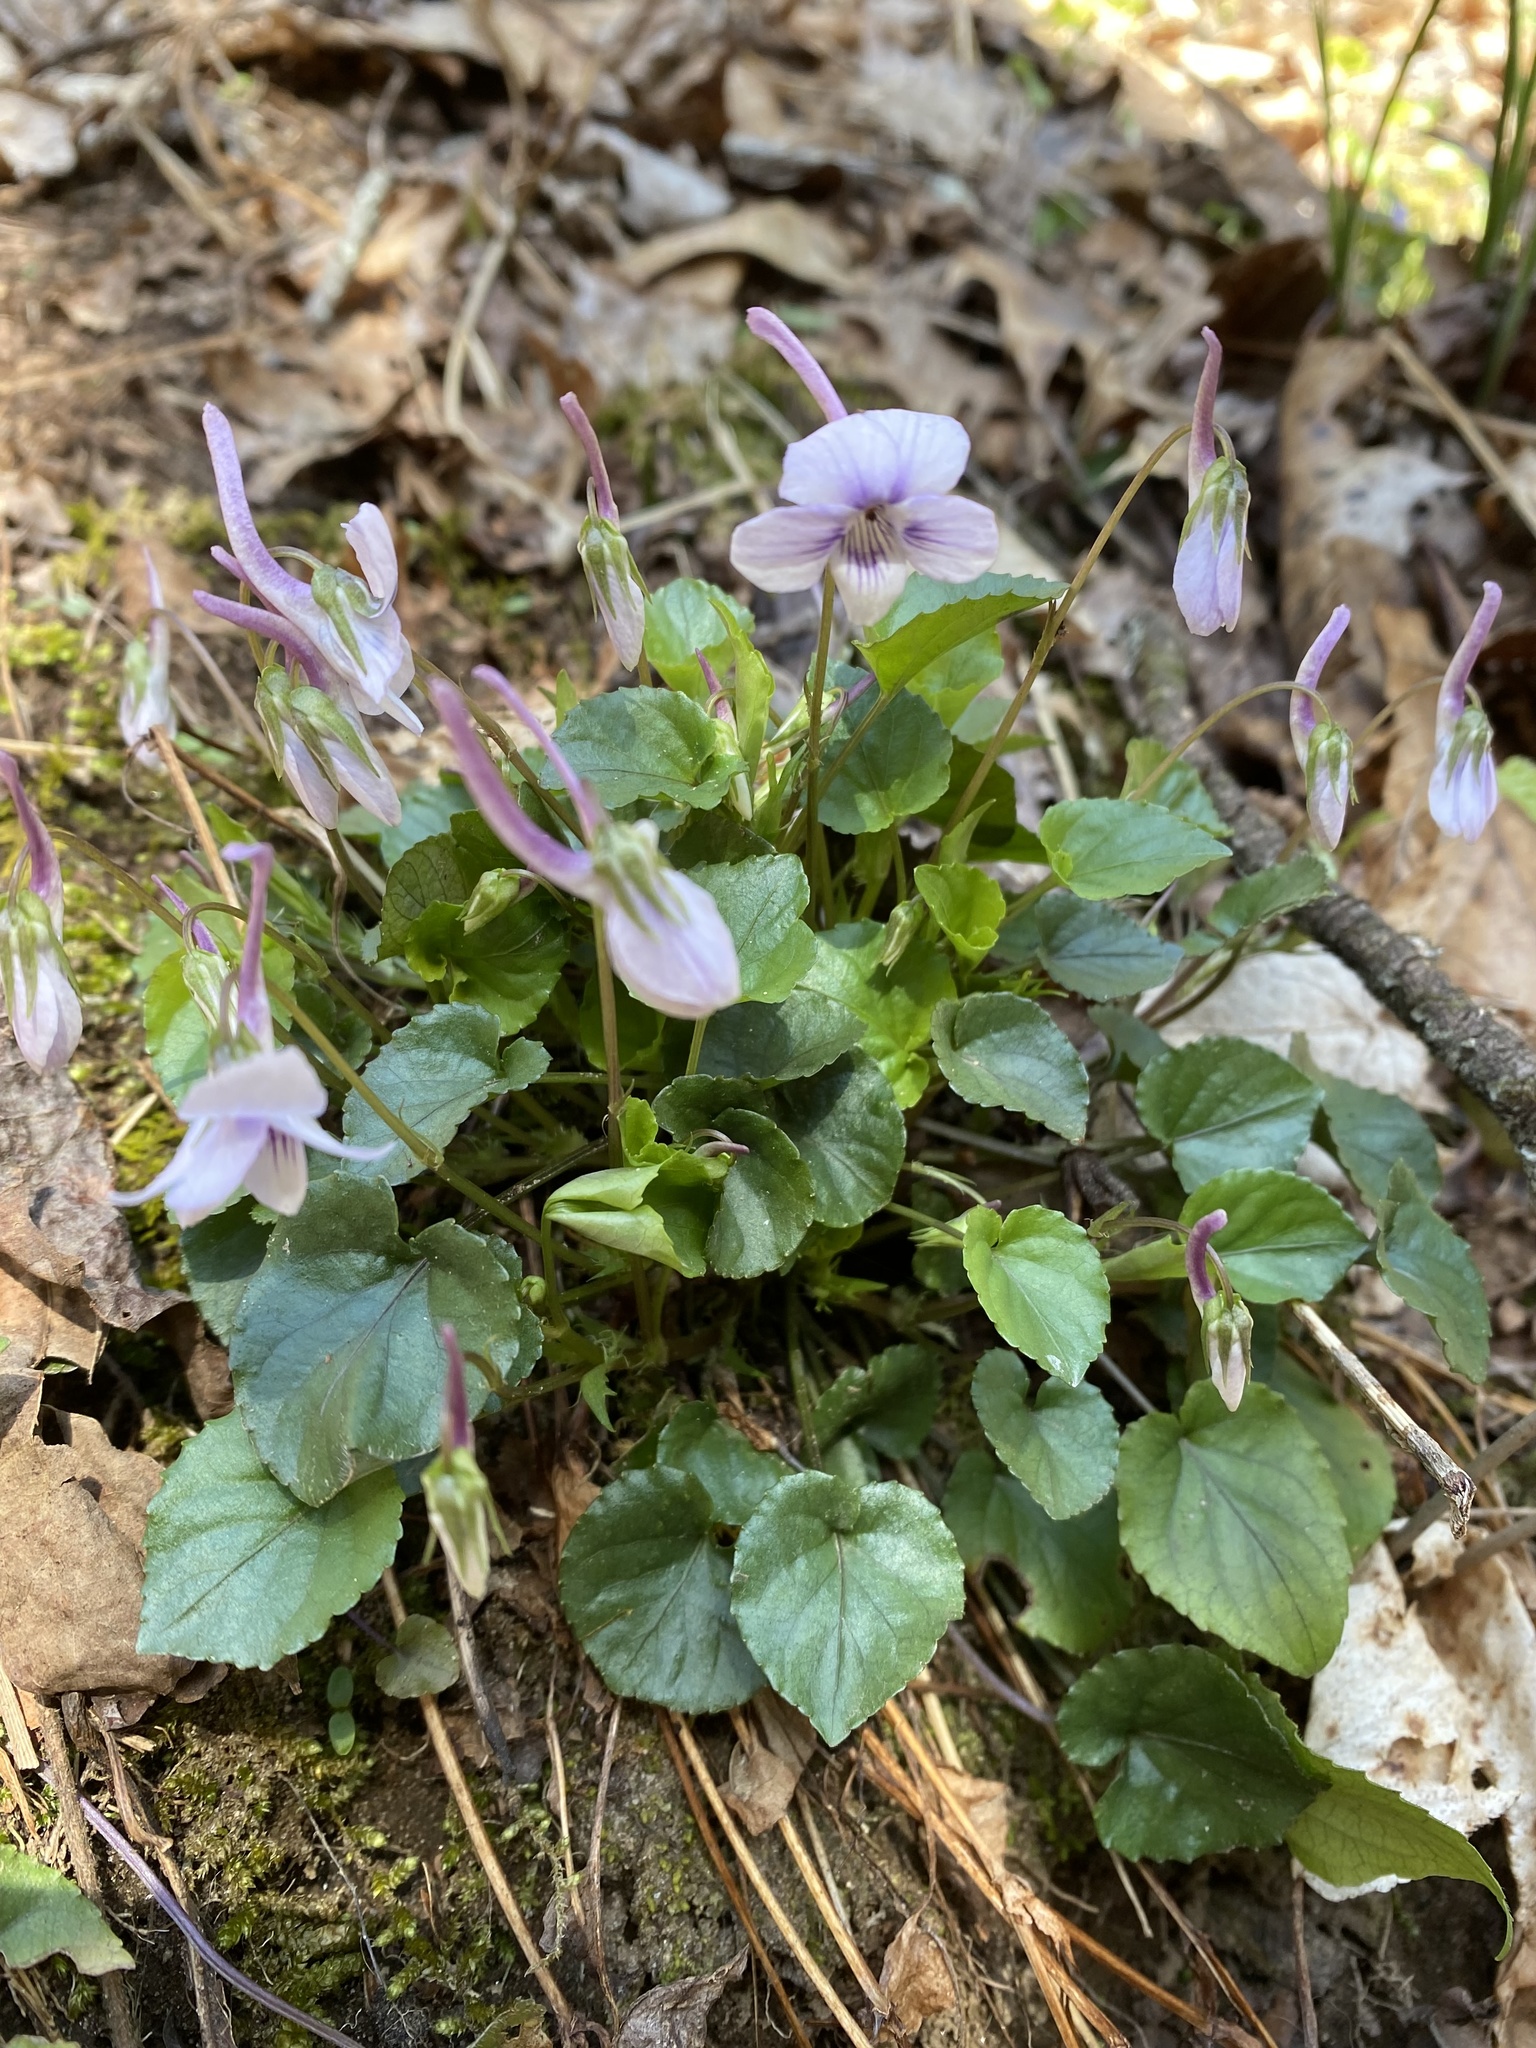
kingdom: Plantae
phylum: Tracheophyta
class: Magnoliopsida
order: Malpighiales
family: Violaceae
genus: Viola
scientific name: Viola rostrata
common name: Long-spur violet
